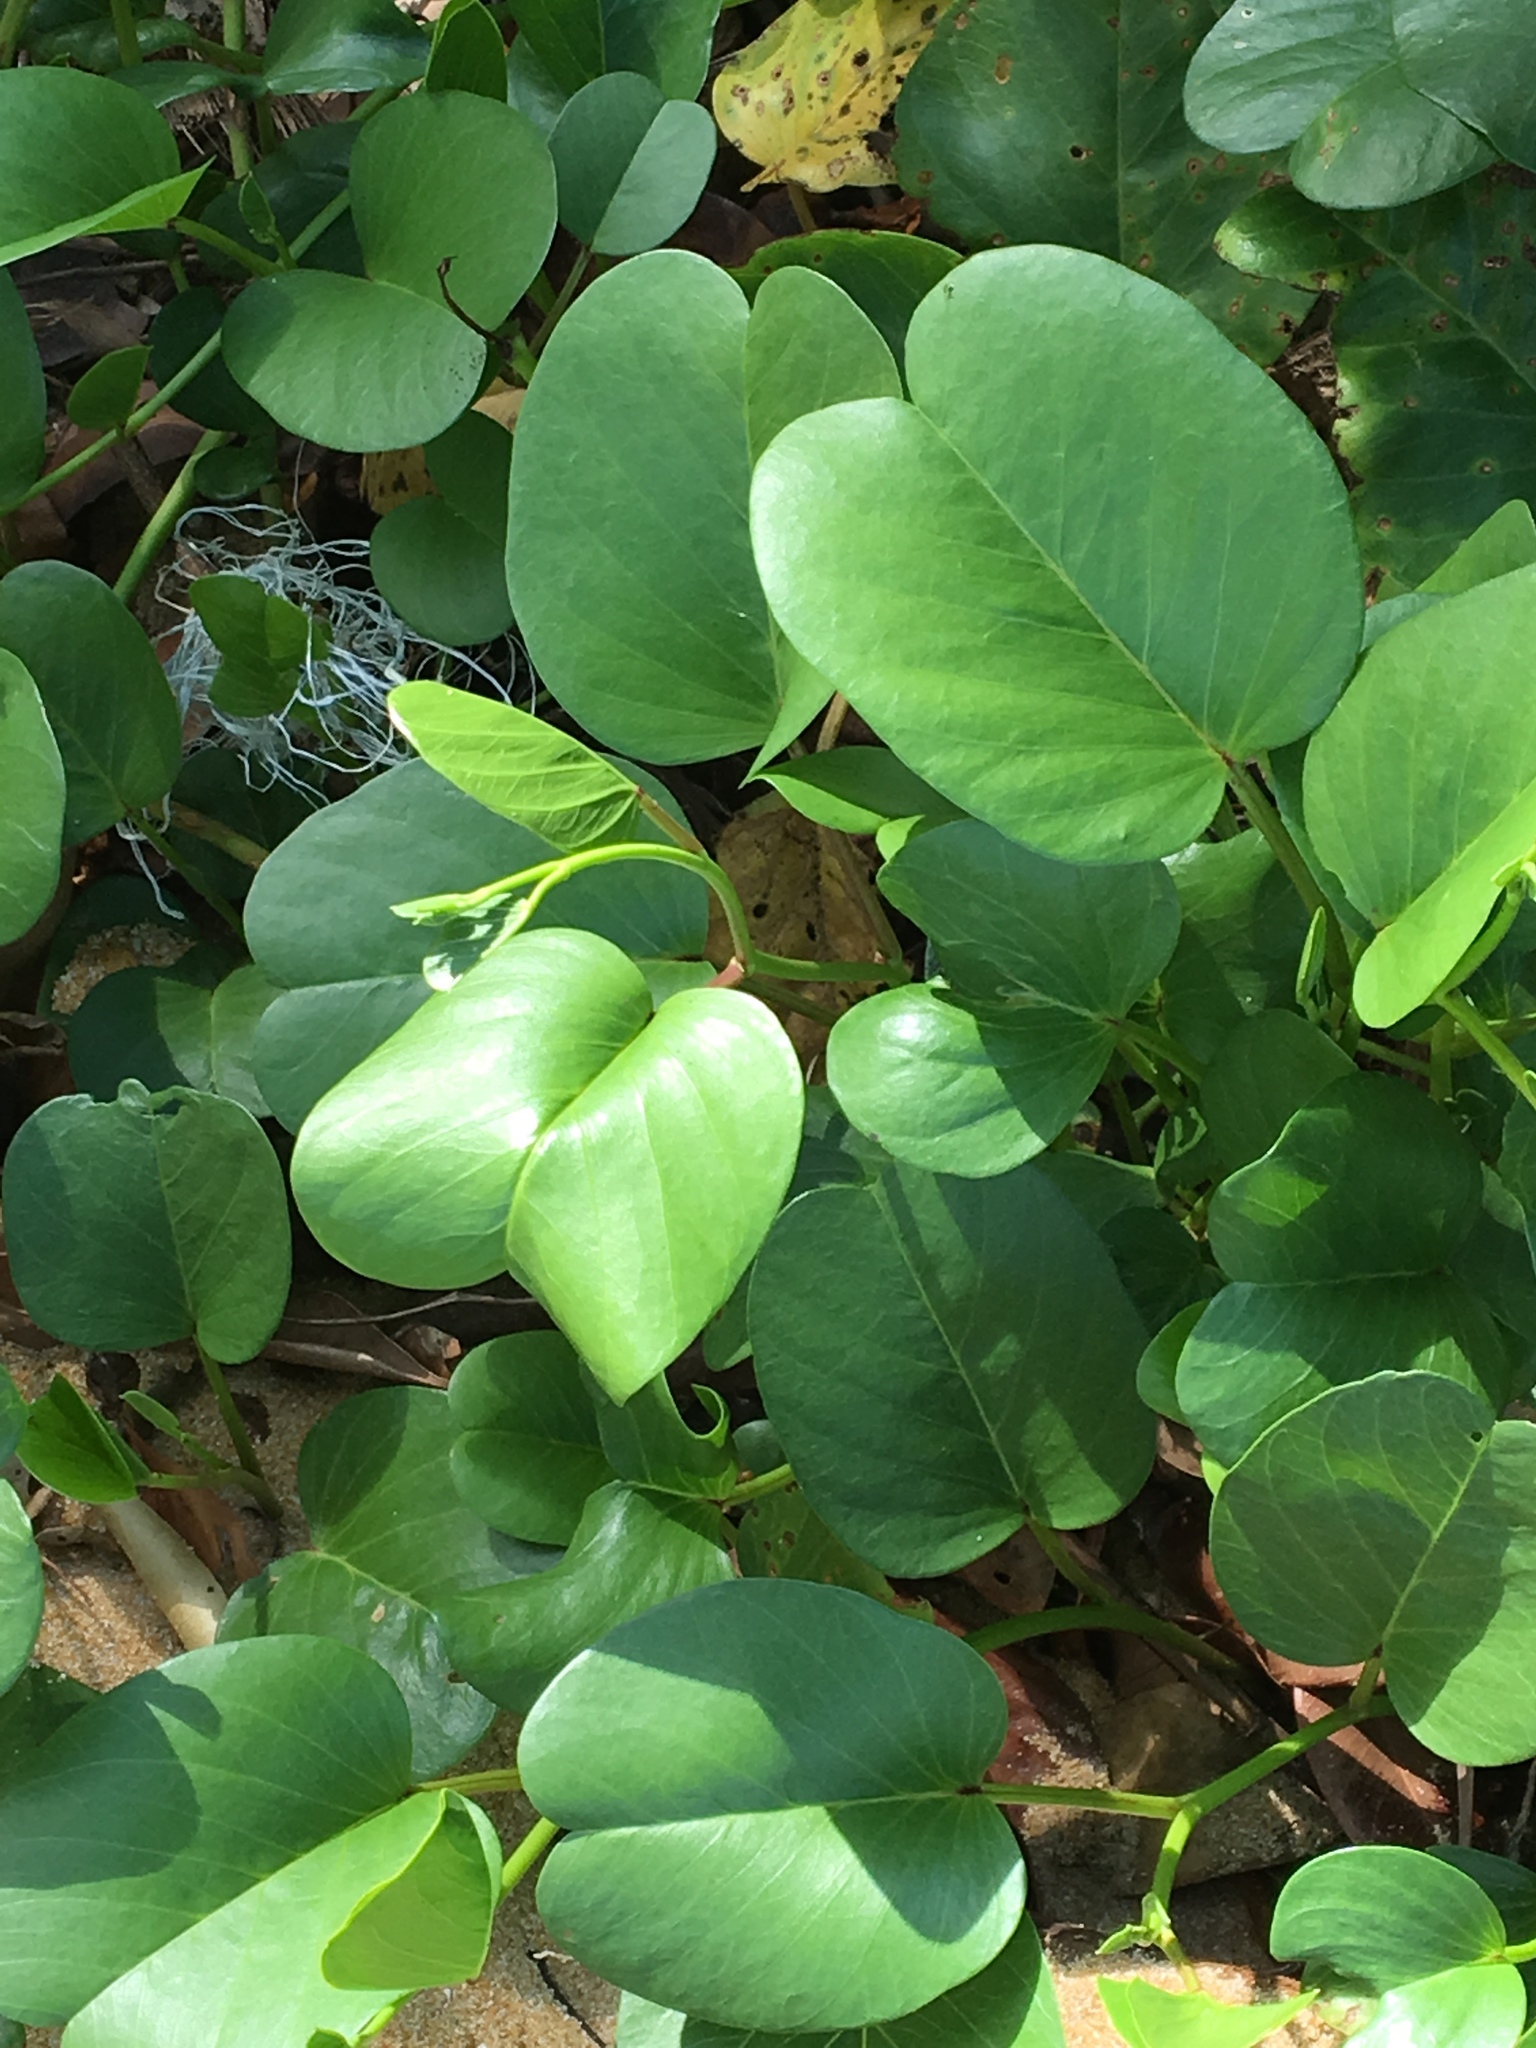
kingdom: Plantae
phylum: Tracheophyta
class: Magnoliopsida
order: Solanales
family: Convolvulaceae
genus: Ipomoea
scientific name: Ipomoea pes-caprae
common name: Beach morning glory
